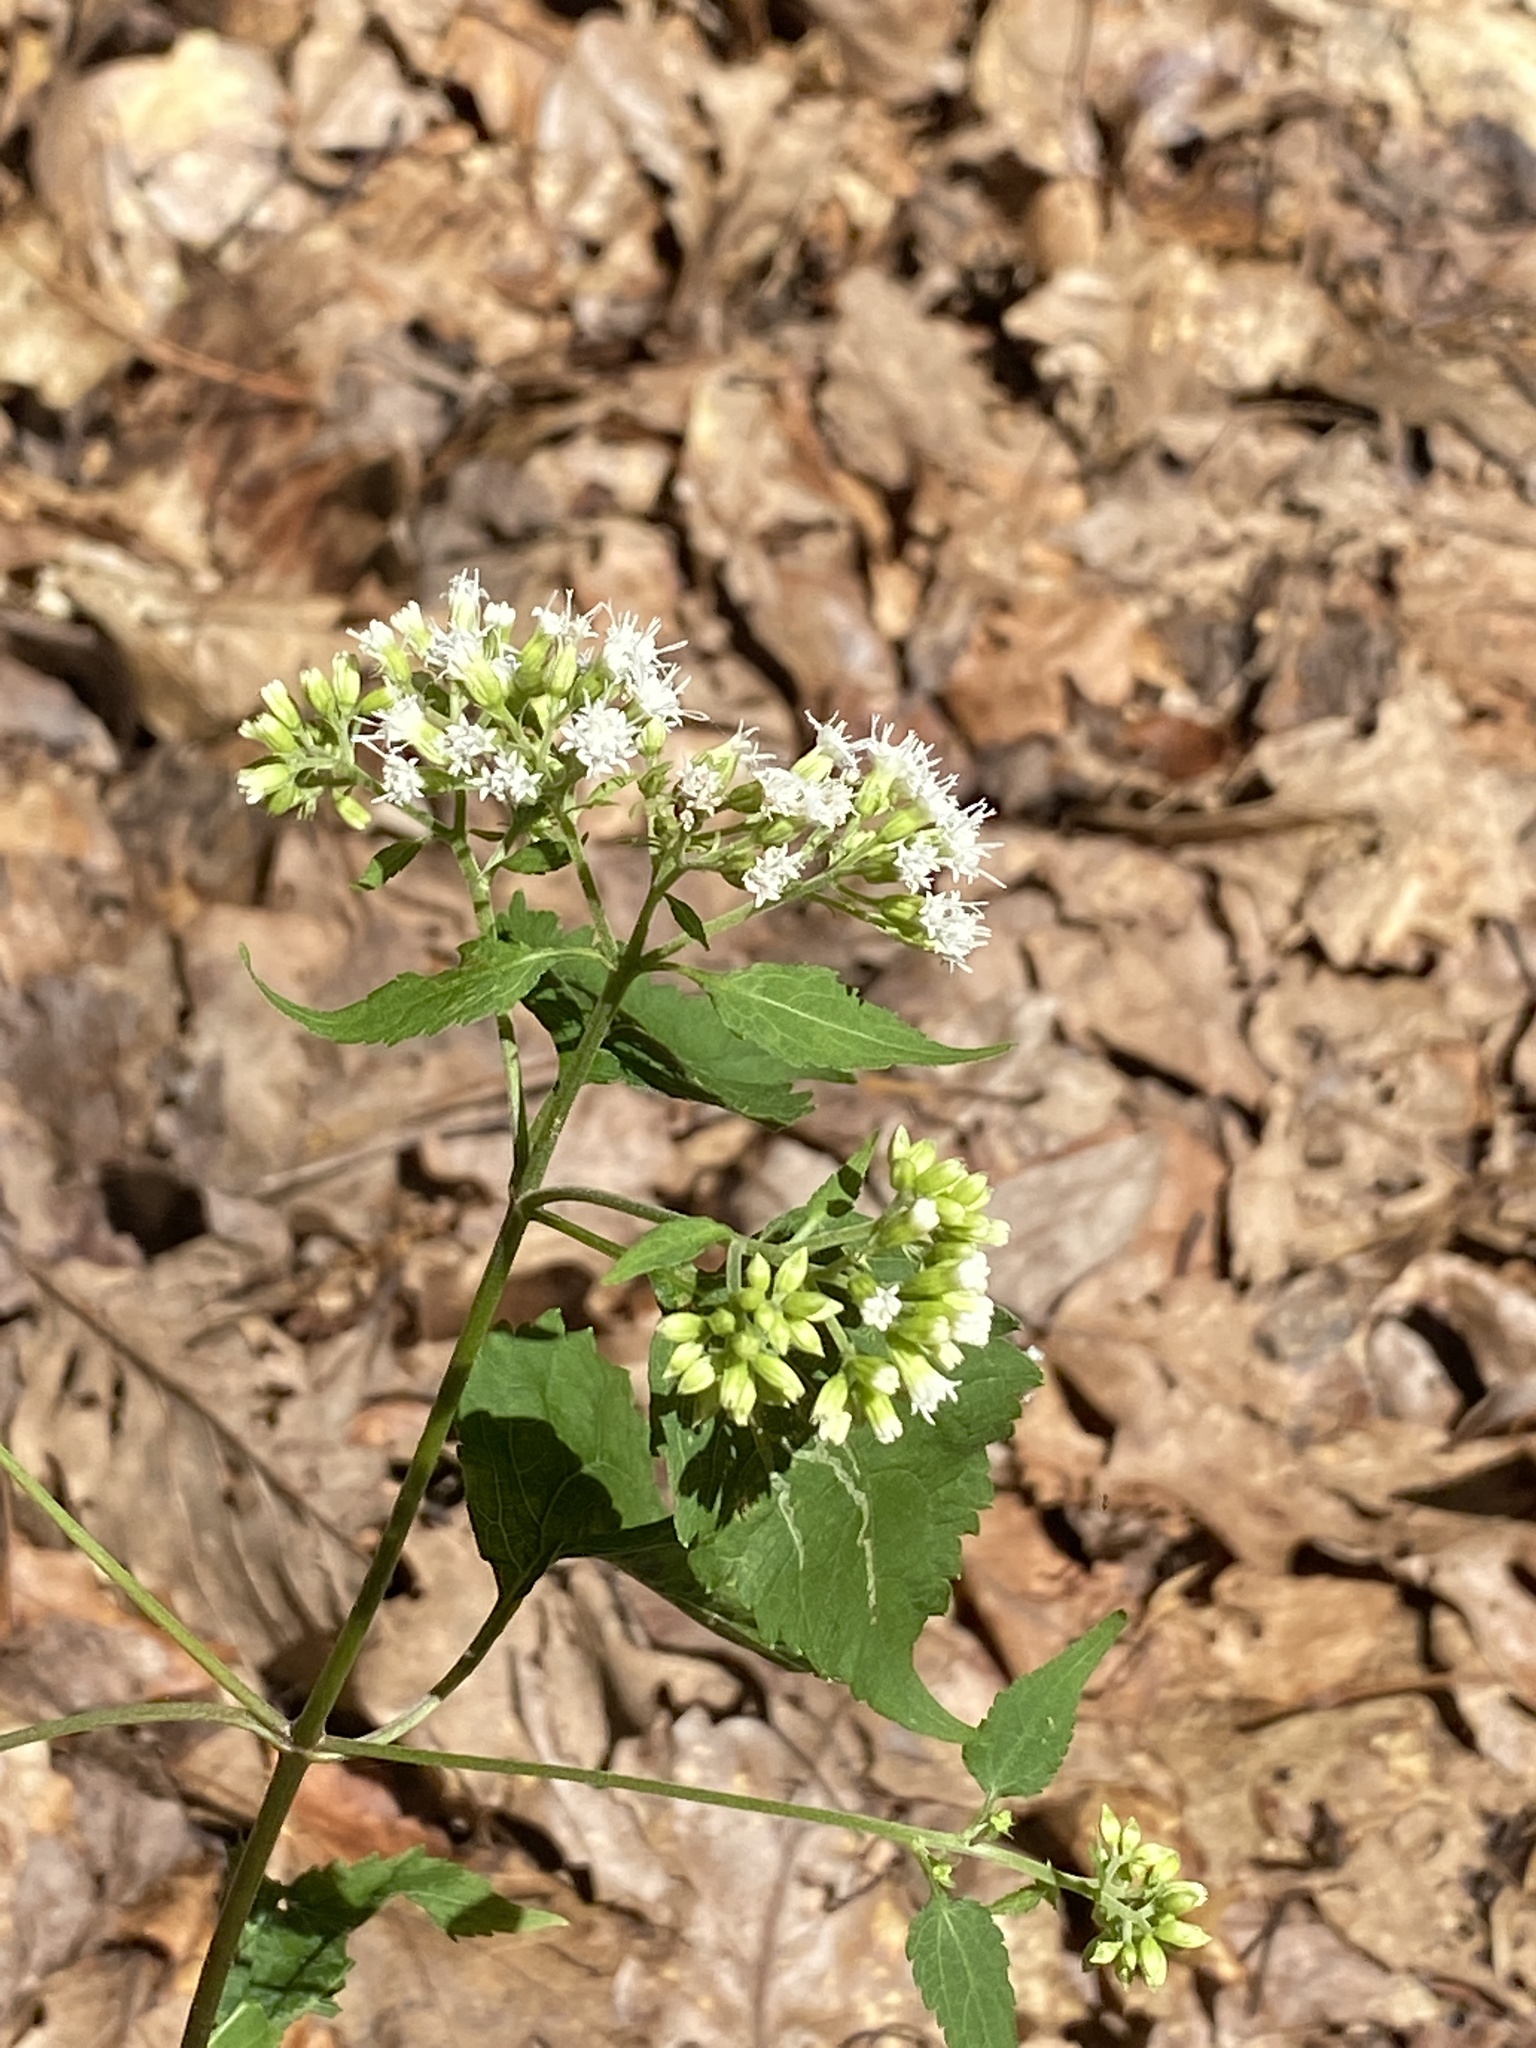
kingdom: Plantae
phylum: Tracheophyta
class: Magnoliopsida
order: Asterales
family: Asteraceae
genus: Ageratina
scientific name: Ageratina altissima
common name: White snakeroot
